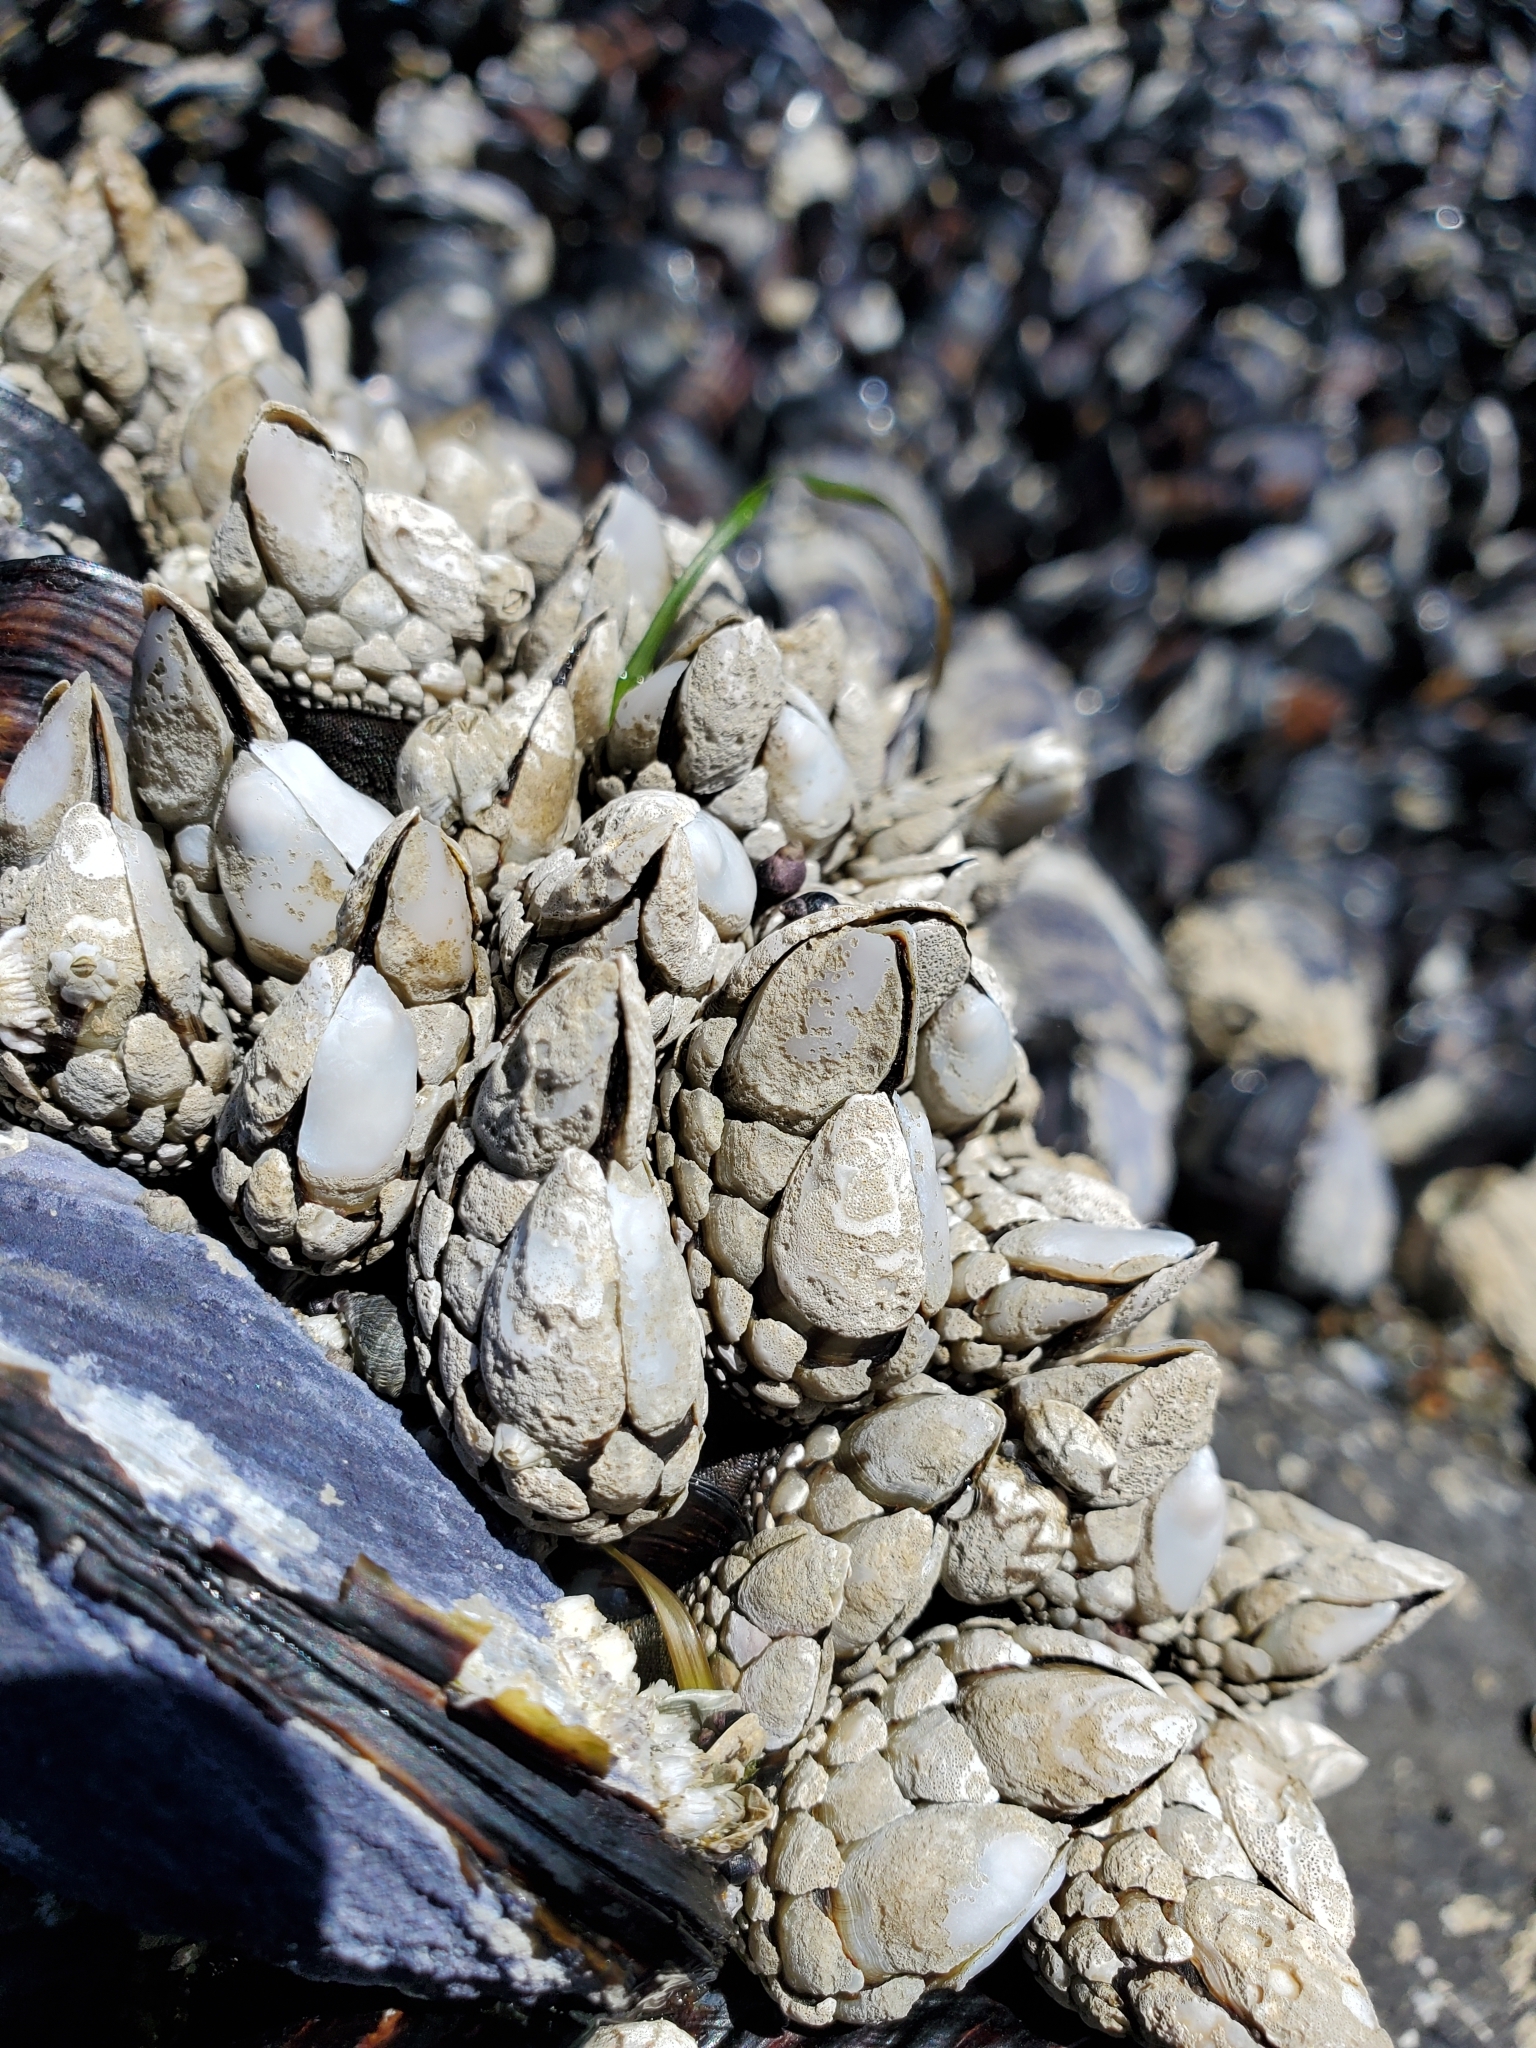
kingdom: Animalia
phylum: Arthropoda
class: Maxillopoda
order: Pedunculata
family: Pollicipedidae
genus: Pollicipes
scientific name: Pollicipes polymerus
